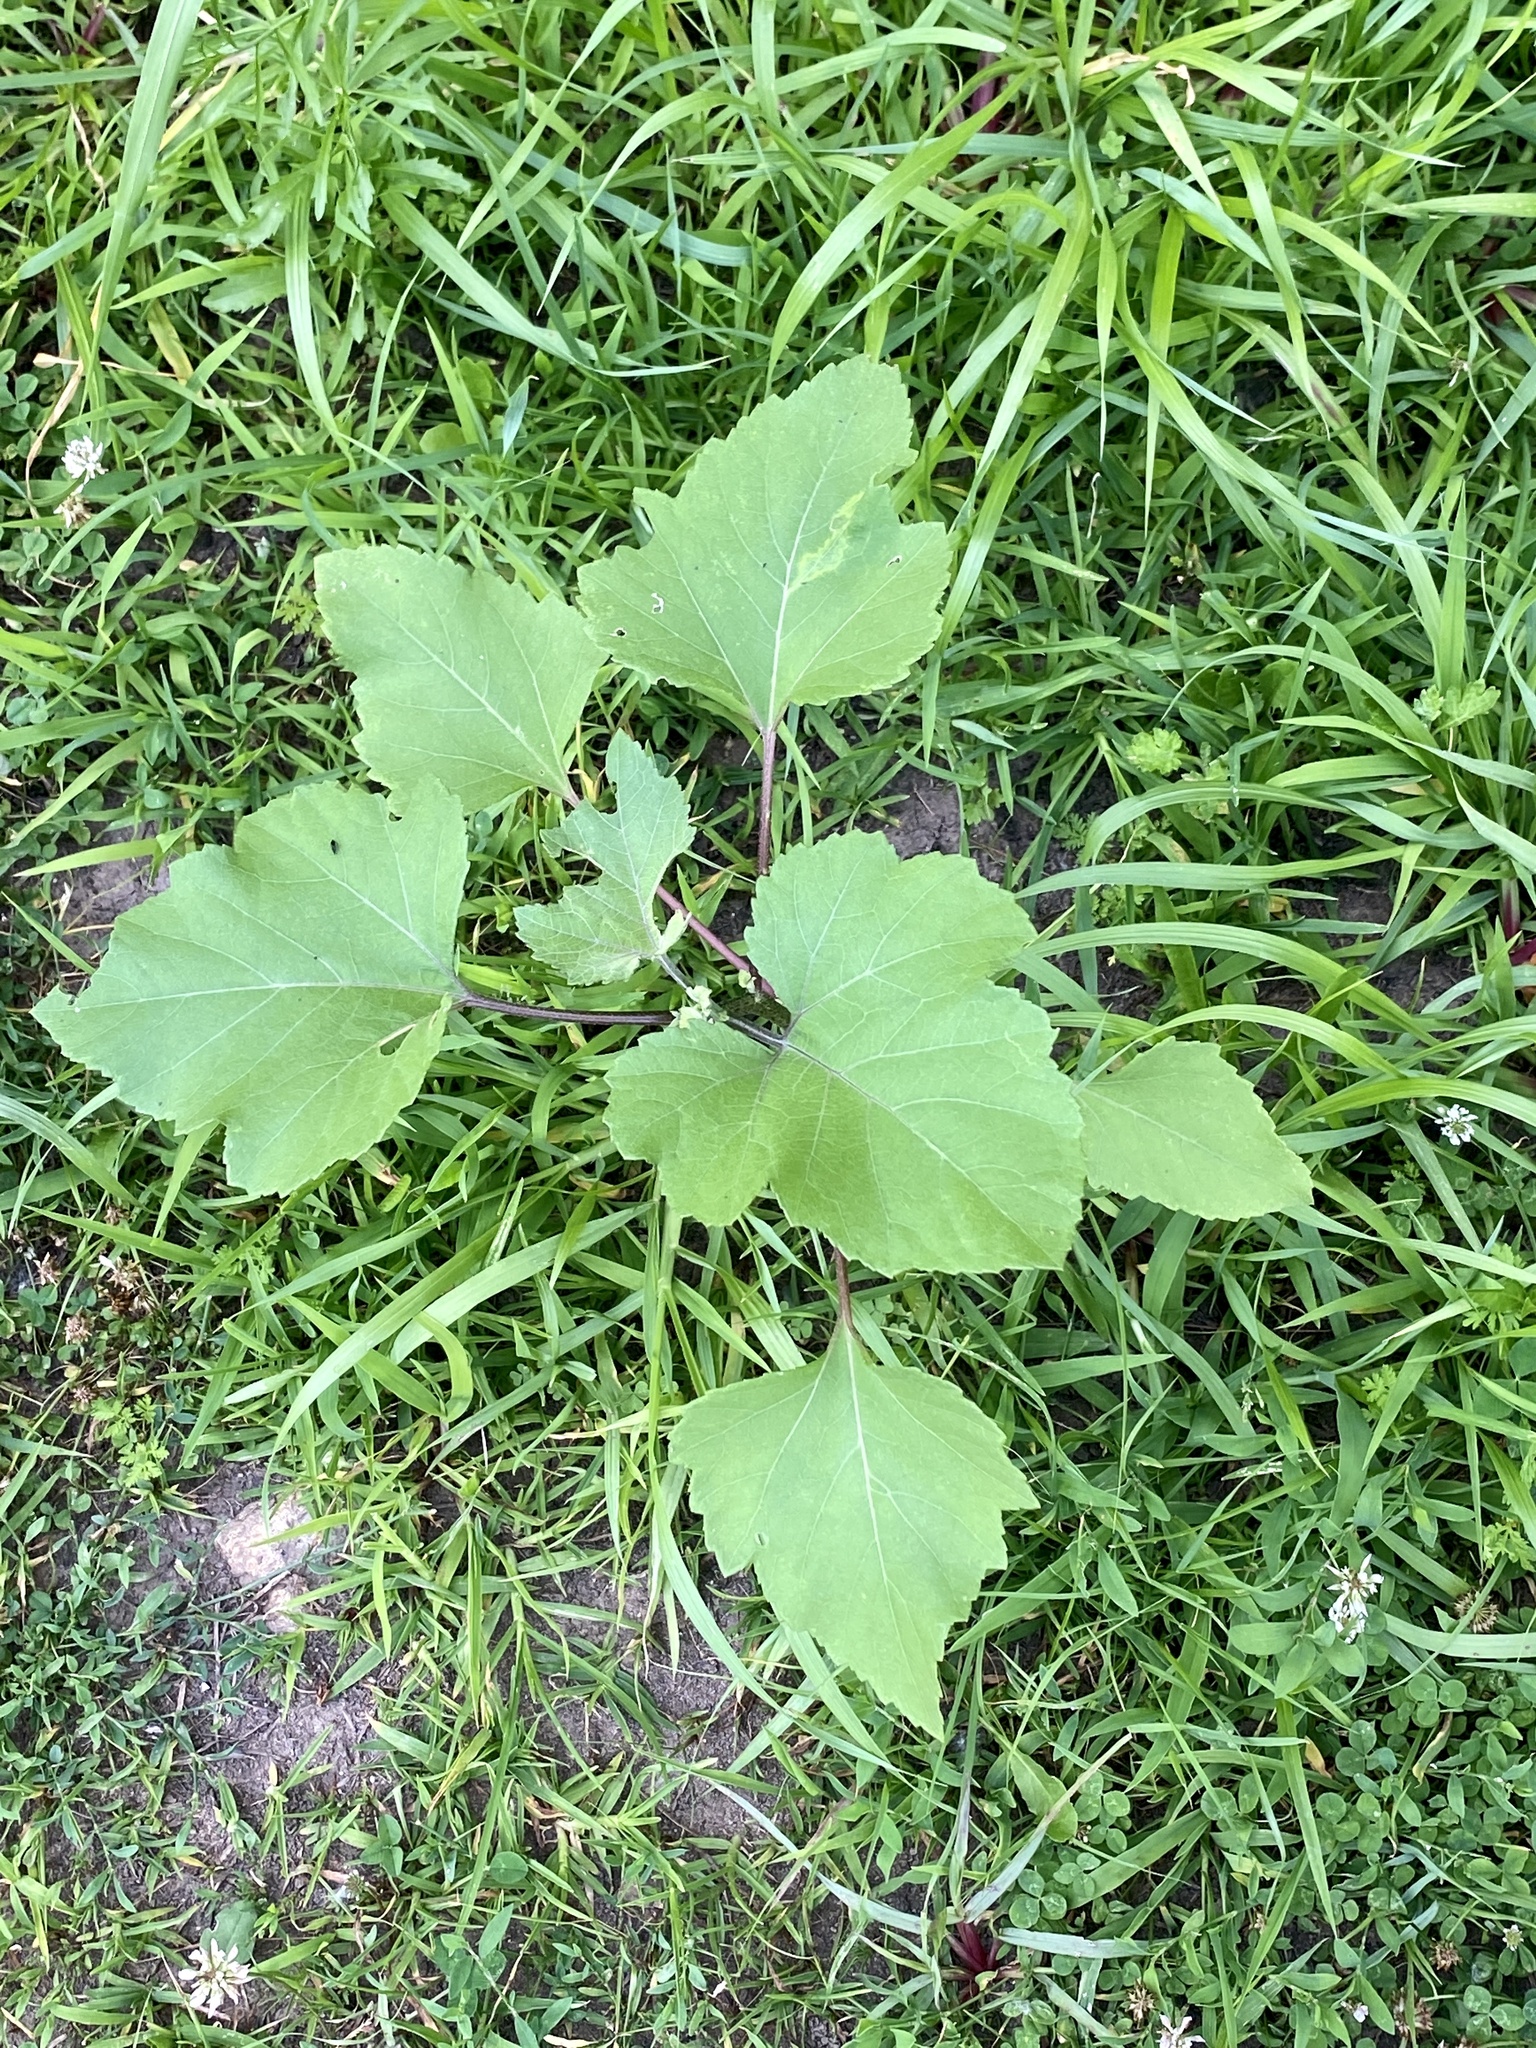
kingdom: Plantae
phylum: Tracheophyta
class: Magnoliopsida
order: Asterales
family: Asteraceae
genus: Xanthium
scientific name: Xanthium strumarium
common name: Rough cocklebur
